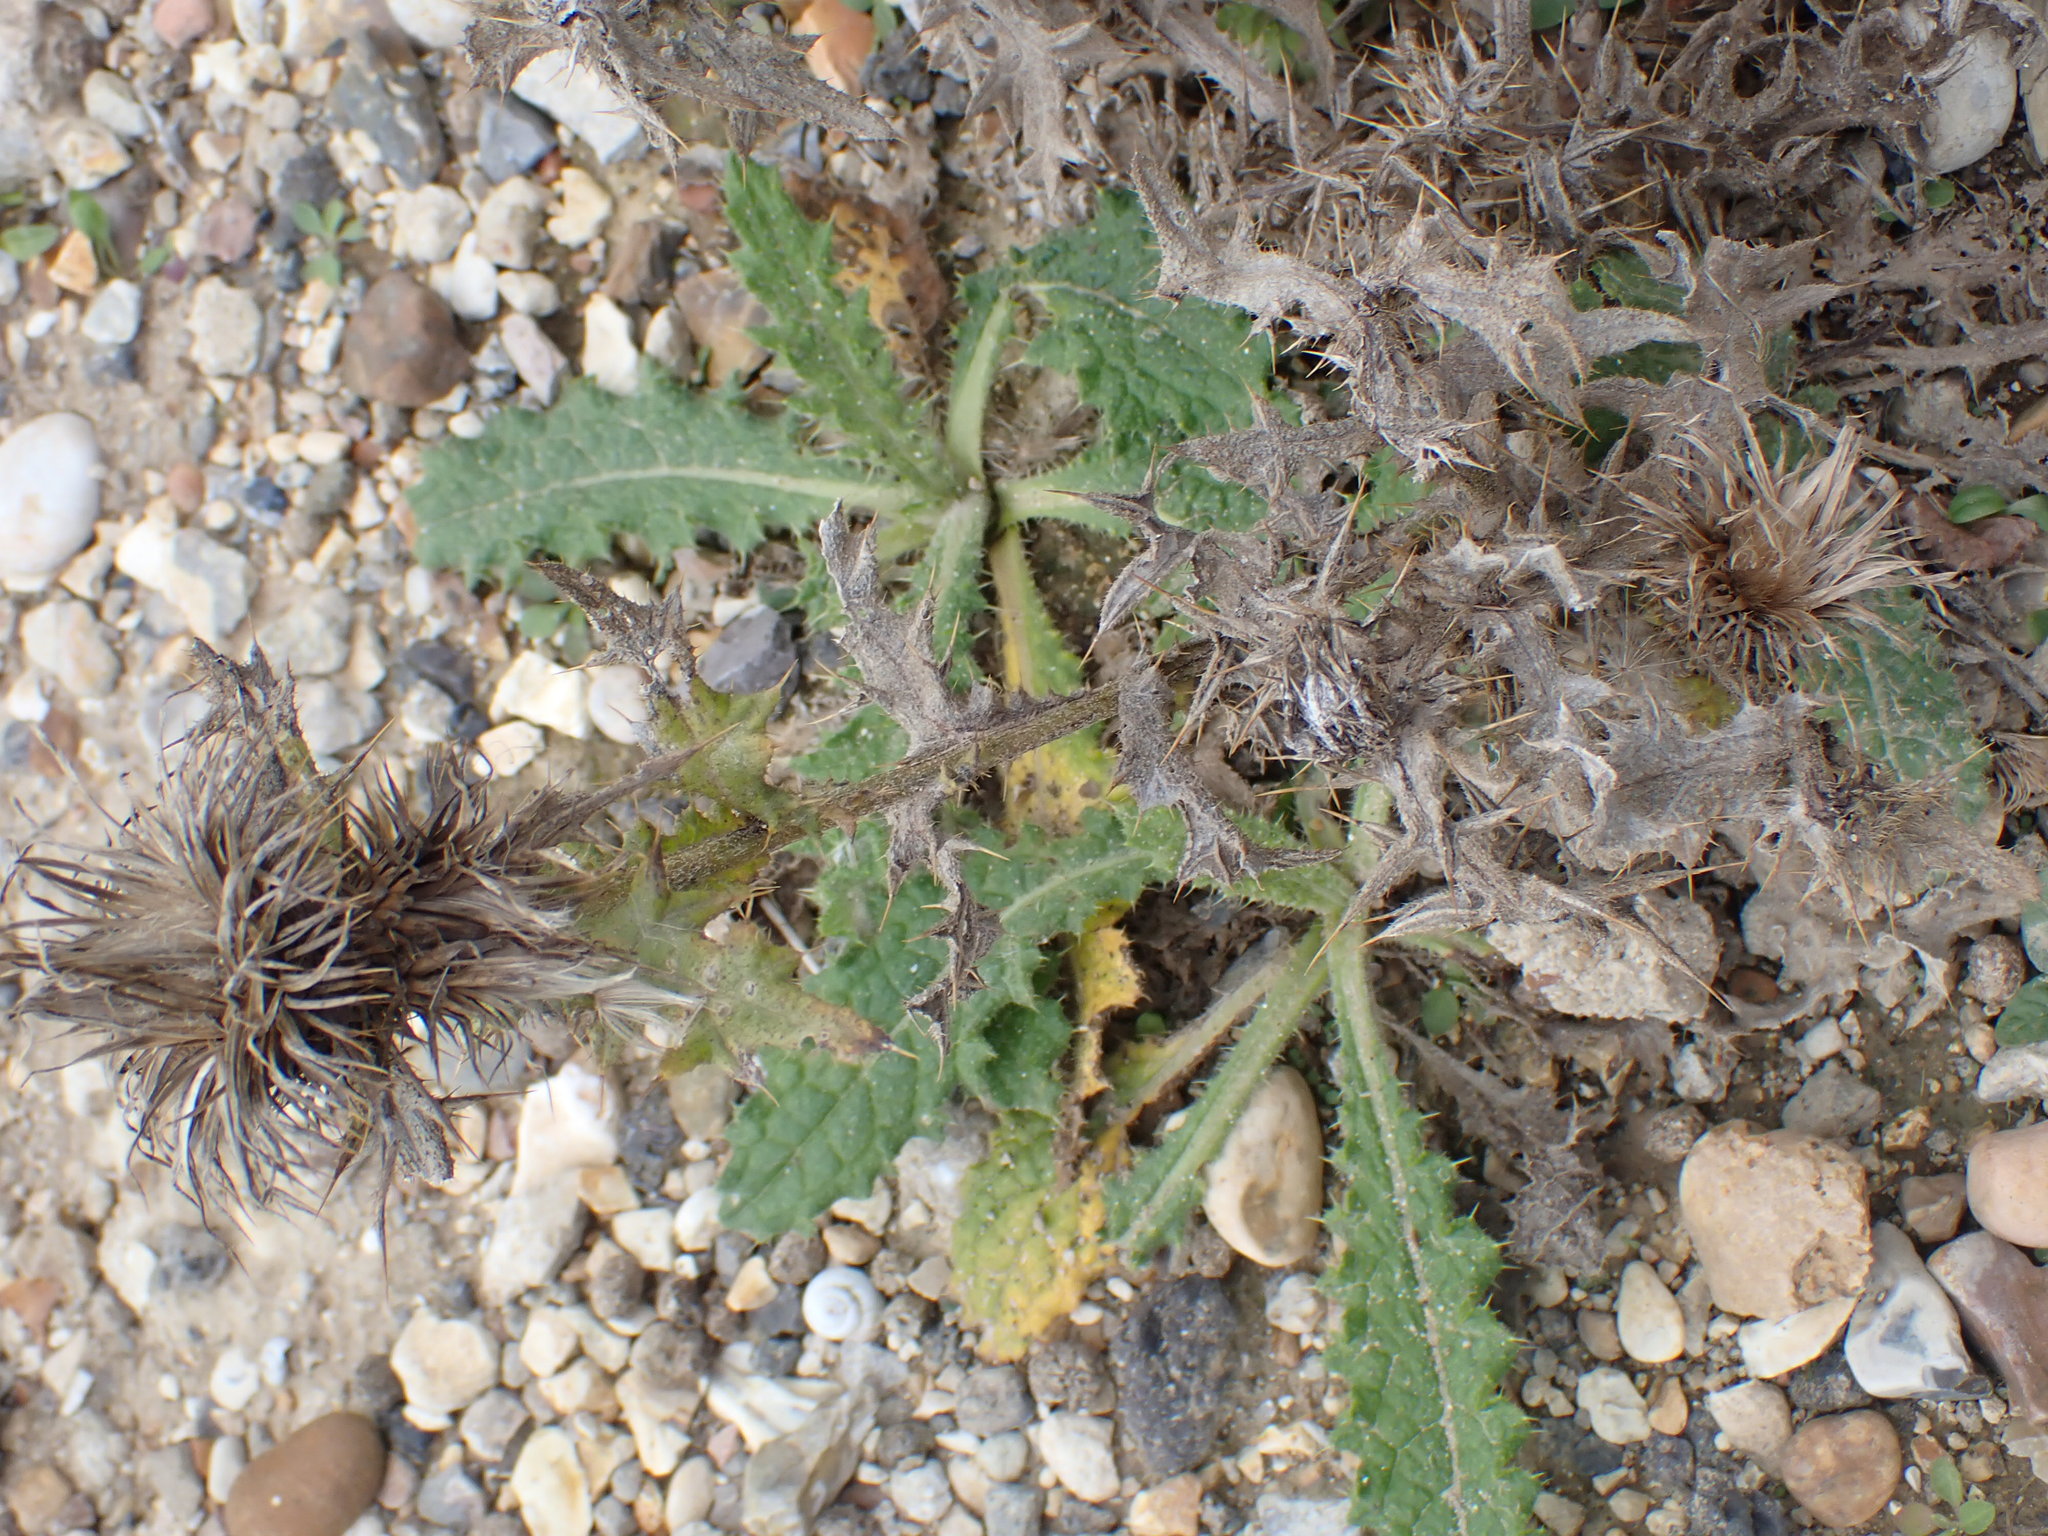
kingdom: Plantae
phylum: Tracheophyta
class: Magnoliopsida
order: Asterales
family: Asteraceae
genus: Cirsium
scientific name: Cirsium vulgare
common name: Bull thistle
